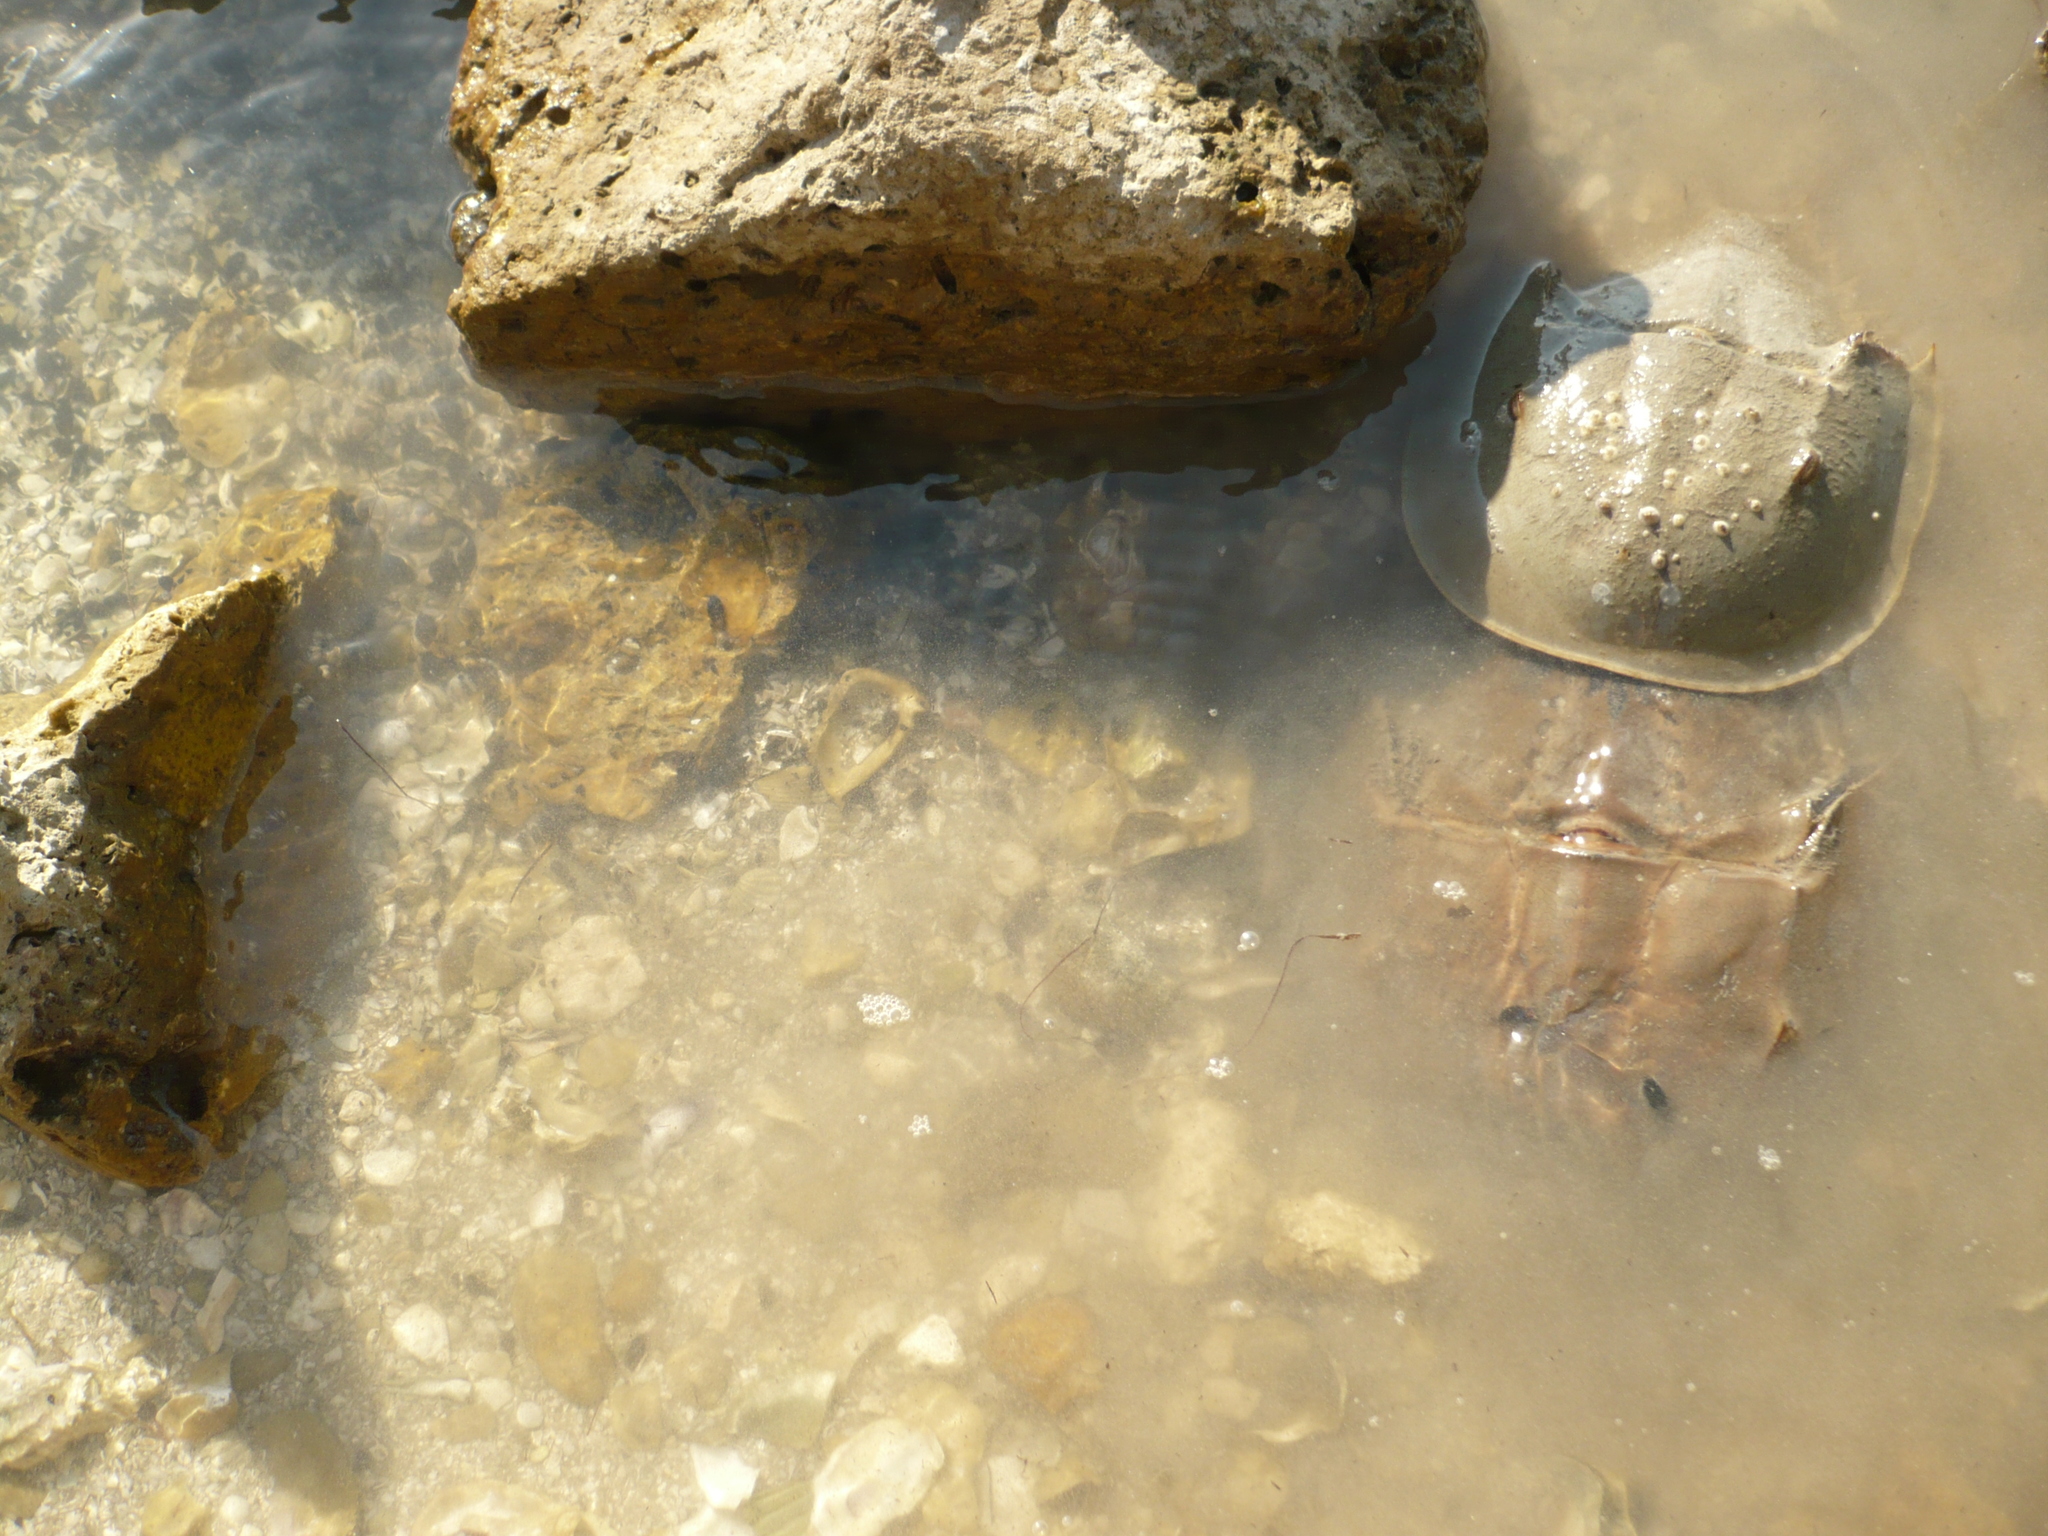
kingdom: Animalia
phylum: Arthropoda
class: Merostomata
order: Xiphosurida
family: Limulidae
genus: Limulus
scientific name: Limulus polyphemus
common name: Horseshoe crab
